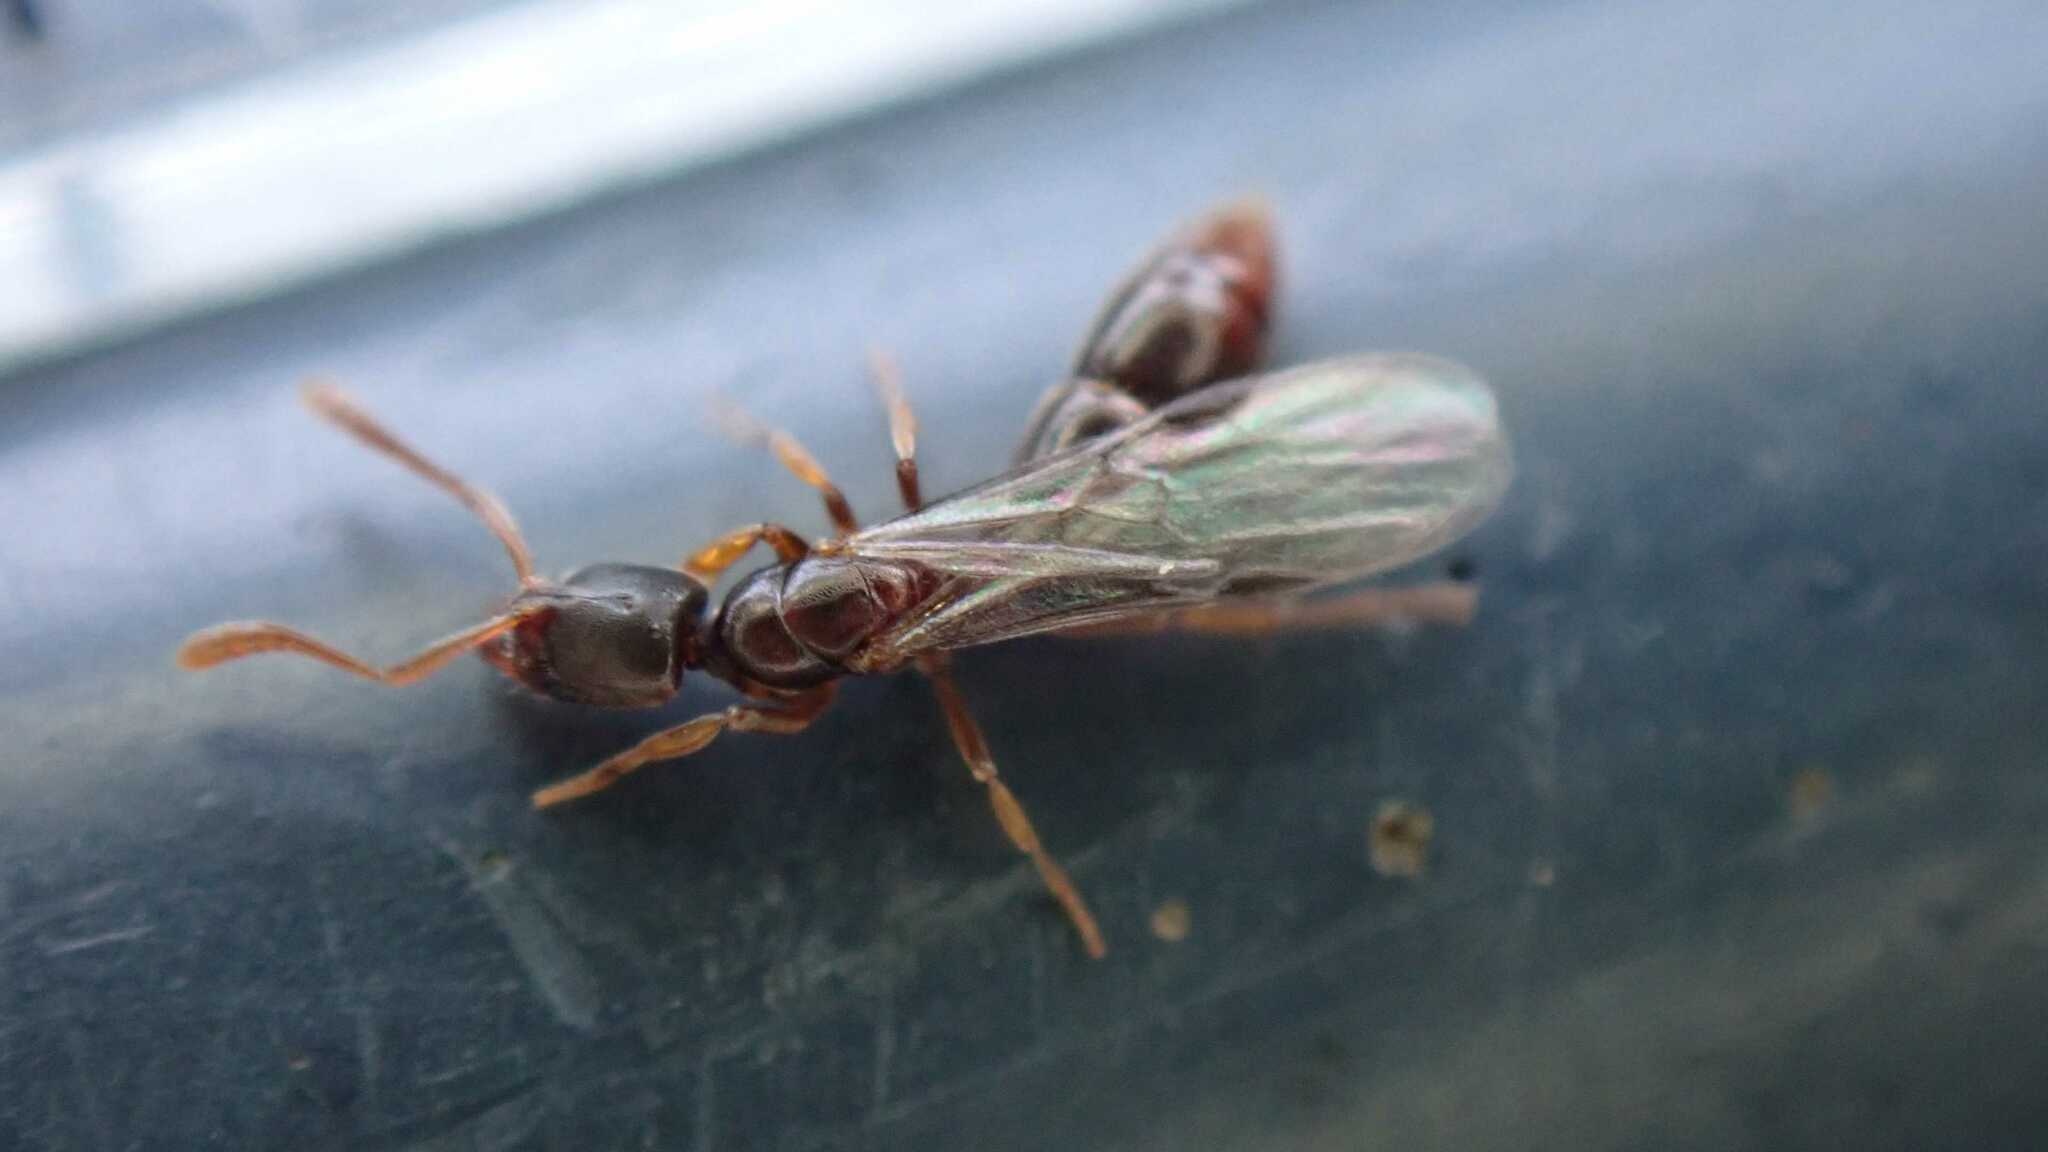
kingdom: Animalia
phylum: Arthropoda
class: Insecta
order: Hymenoptera
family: Formicidae
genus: Ponera
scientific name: Ponera coarctata
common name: Indolent ant
